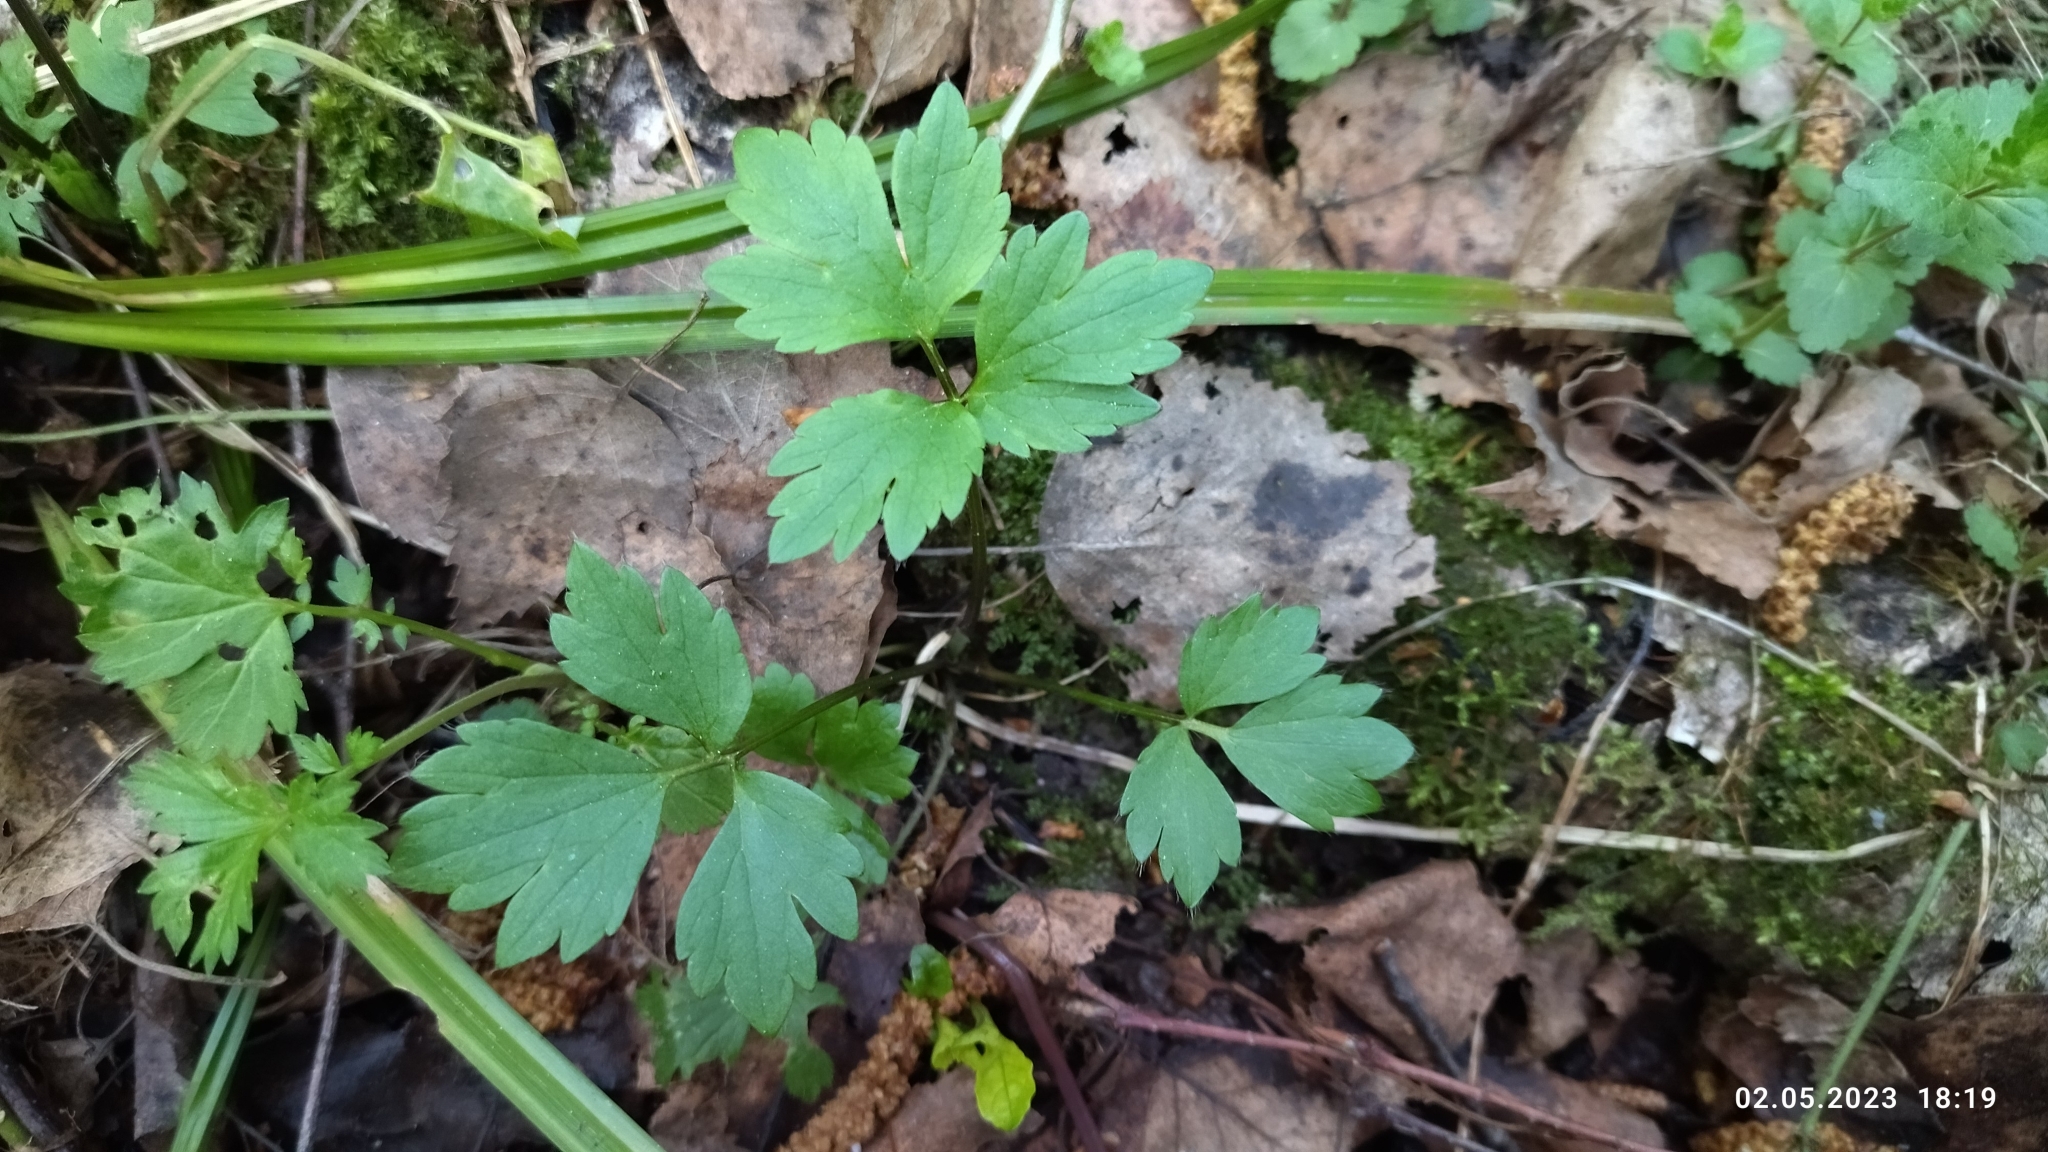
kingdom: Plantae
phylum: Tracheophyta
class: Magnoliopsida
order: Ranunculales
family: Ranunculaceae
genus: Ranunculus
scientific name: Ranunculus repens
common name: Creeping buttercup
